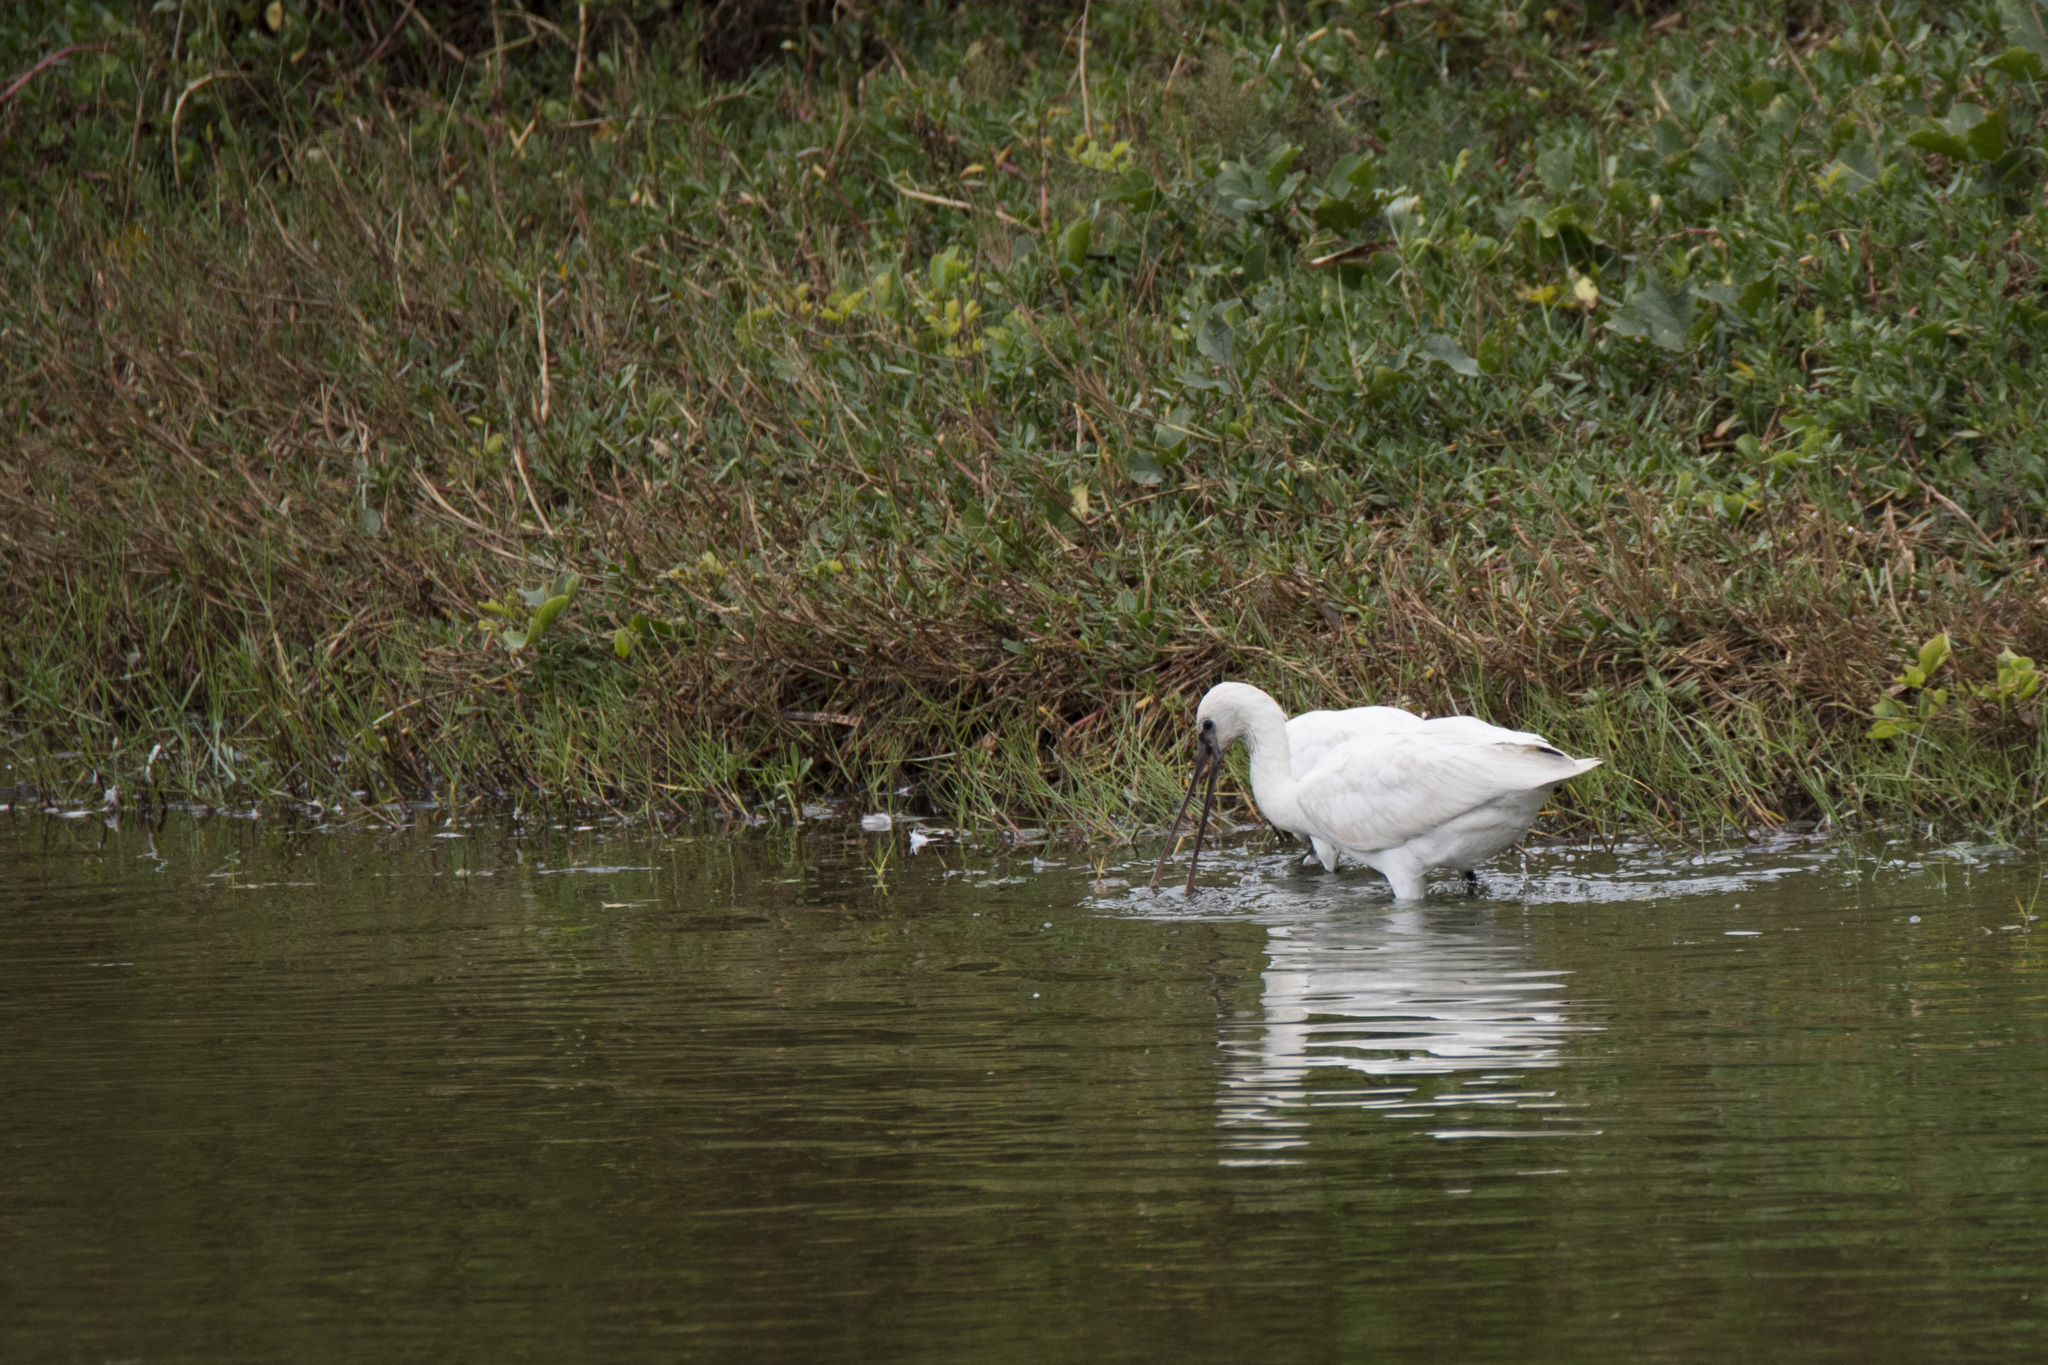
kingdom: Animalia
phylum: Chordata
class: Aves
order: Pelecaniformes
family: Threskiornithidae
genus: Platalea
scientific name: Platalea leucorodia
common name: Eurasian spoonbill
